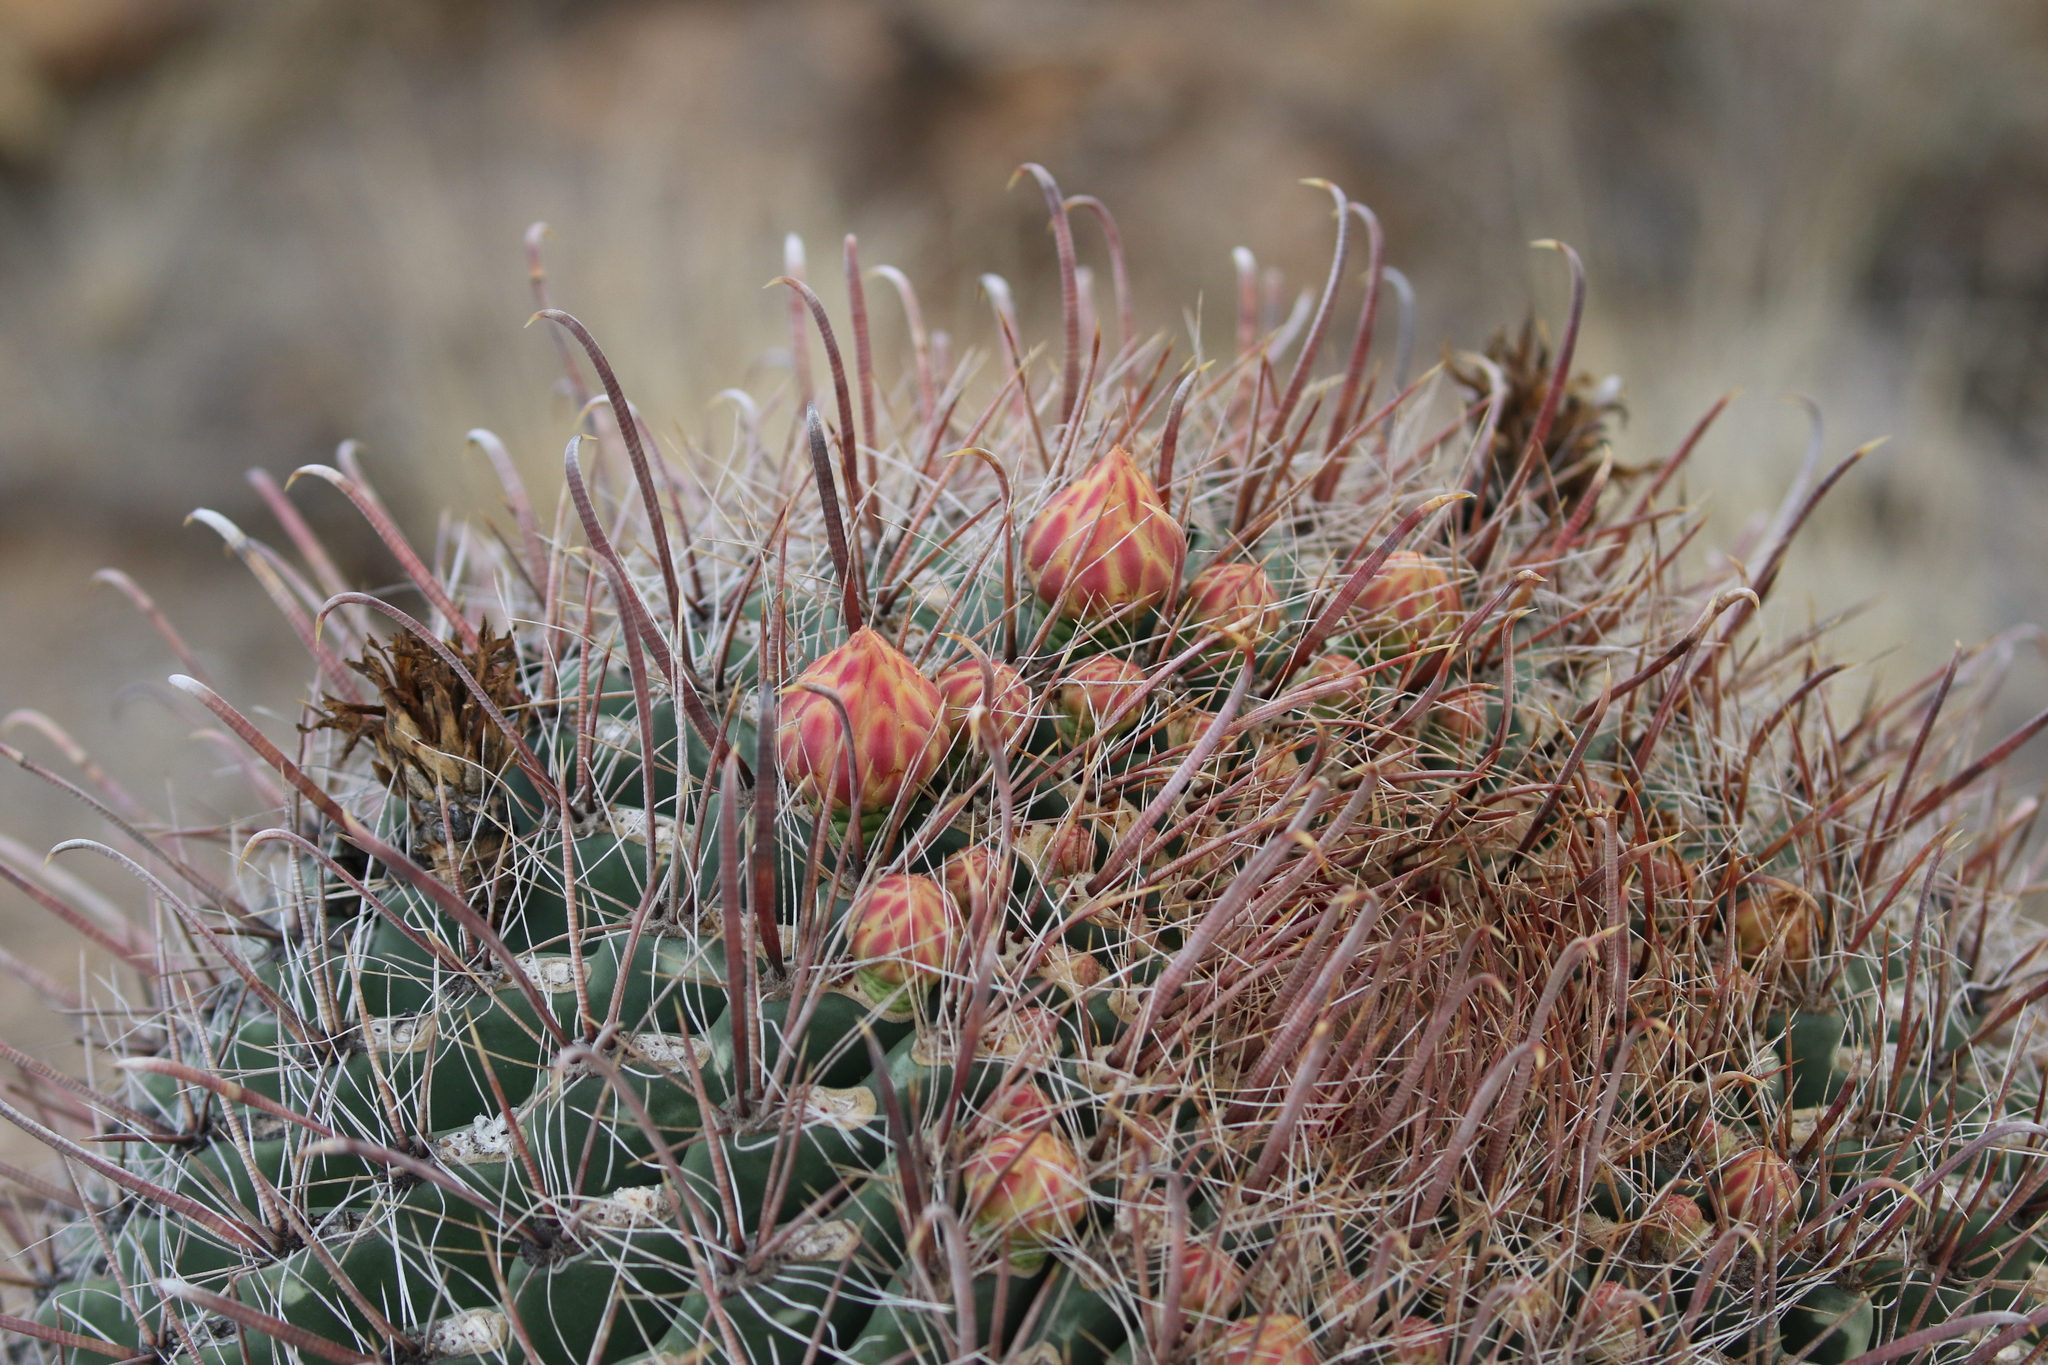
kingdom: Plantae
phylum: Tracheophyta
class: Magnoliopsida
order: Caryophyllales
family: Cactaceae
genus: Ferocactus
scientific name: Ferocactus wislizeni
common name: Candy barrel cactus
